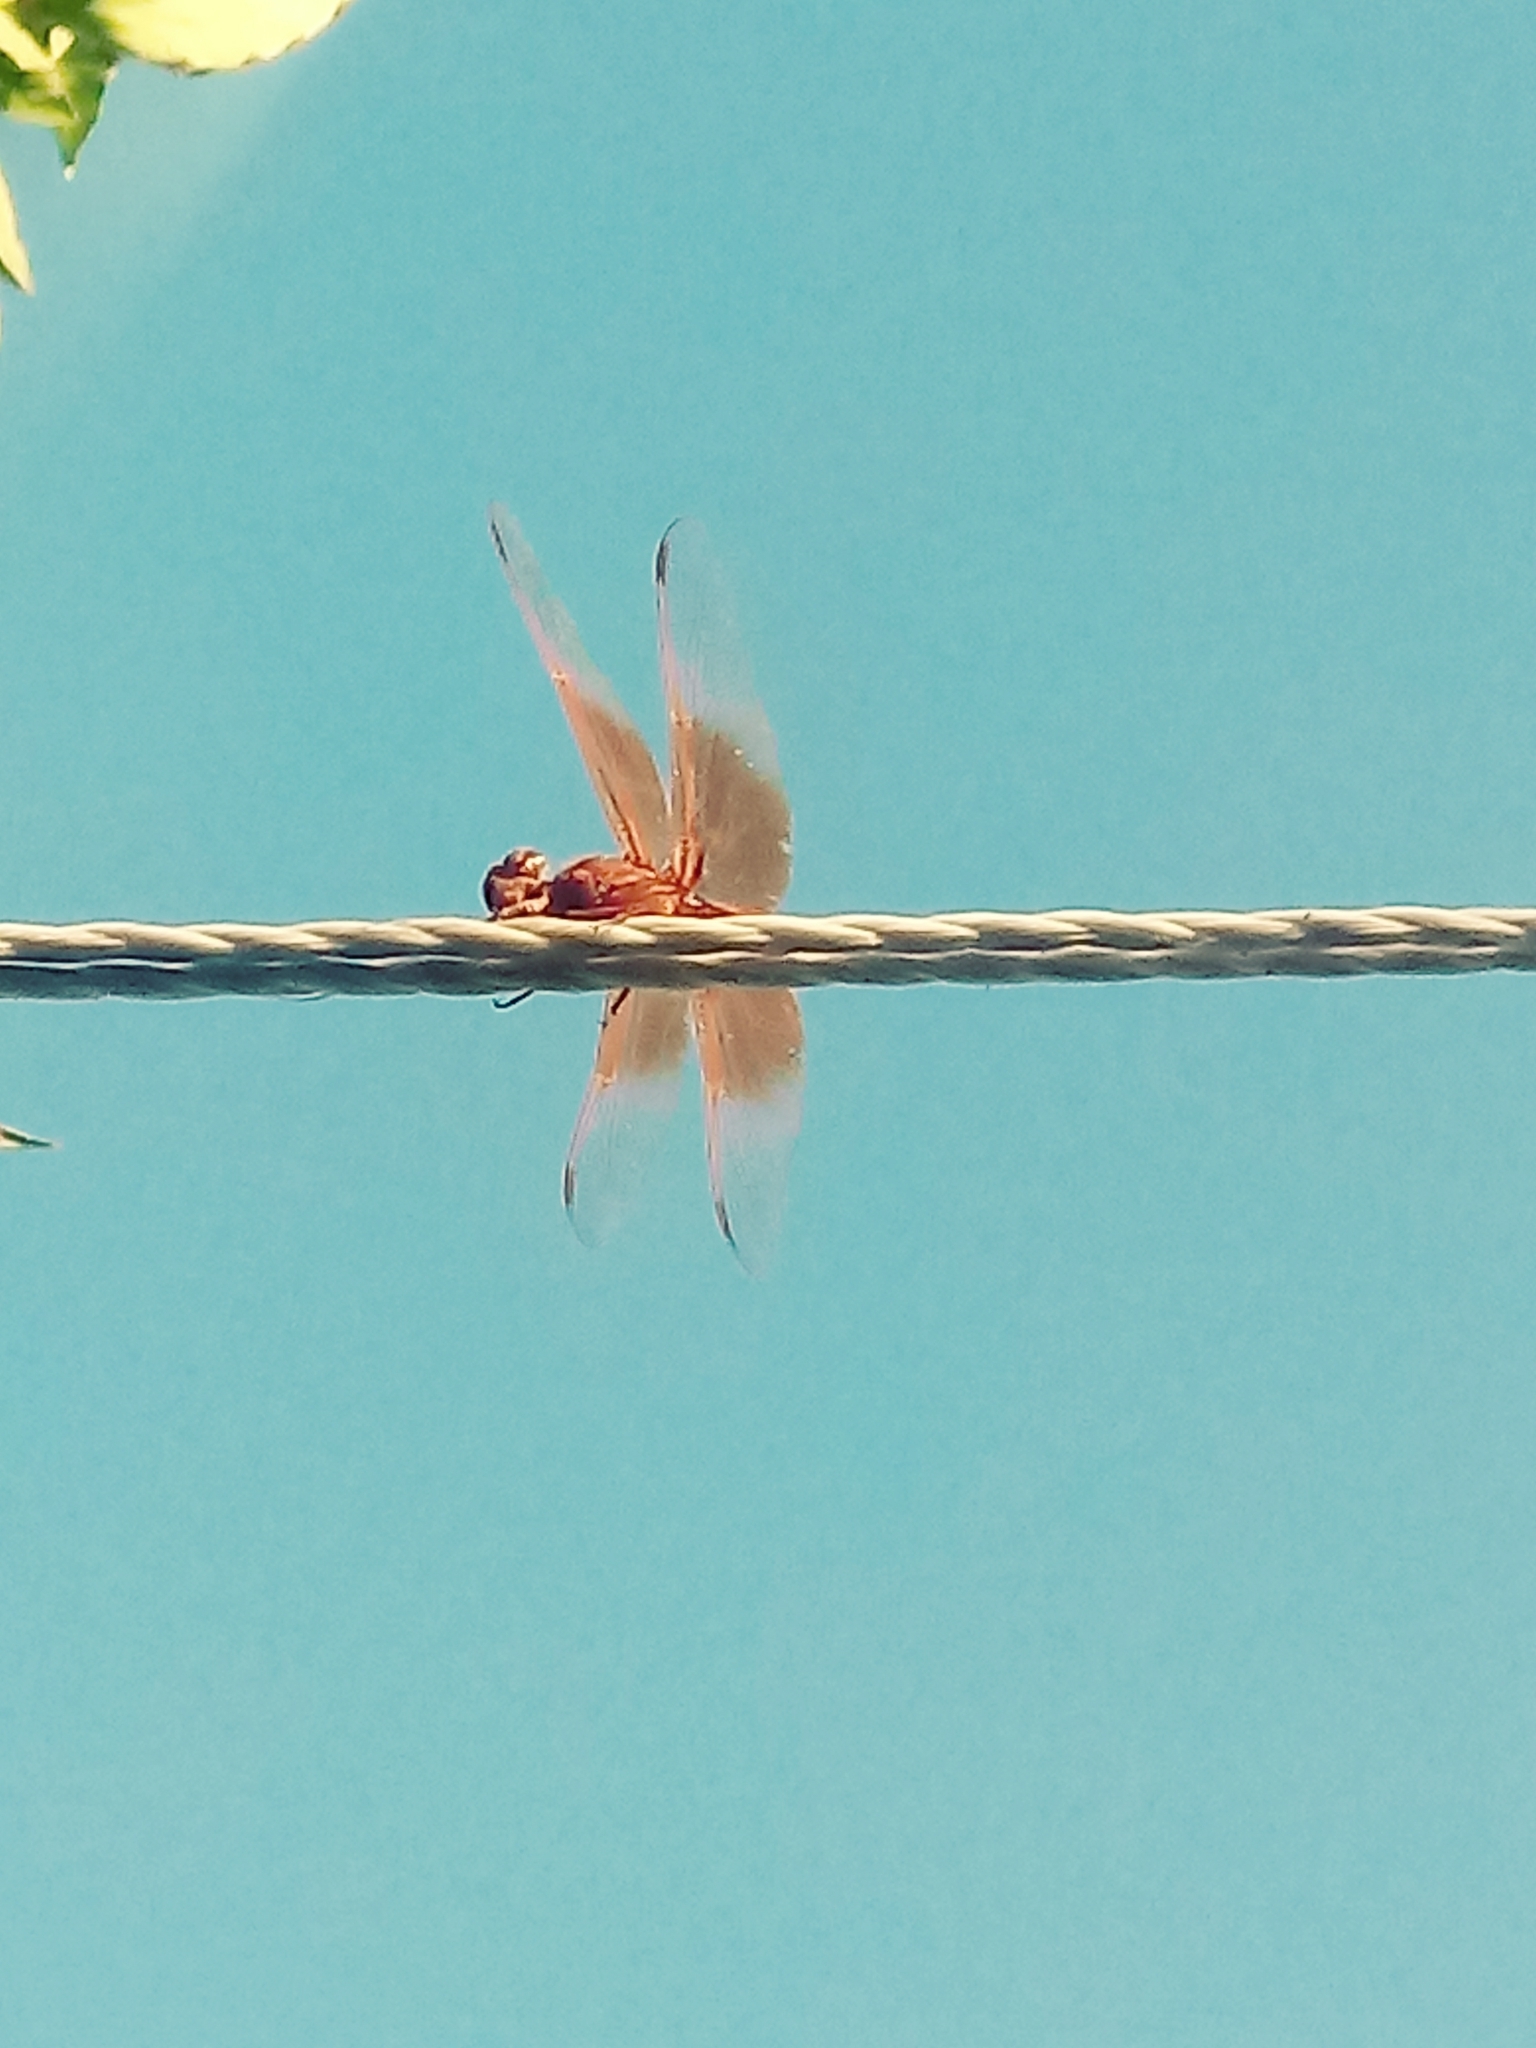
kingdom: Animalia
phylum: Arthropoda
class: Insecta
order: Odonata
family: Libellulidae
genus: Libellula
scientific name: Libellula saturata
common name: Flame skimmer
